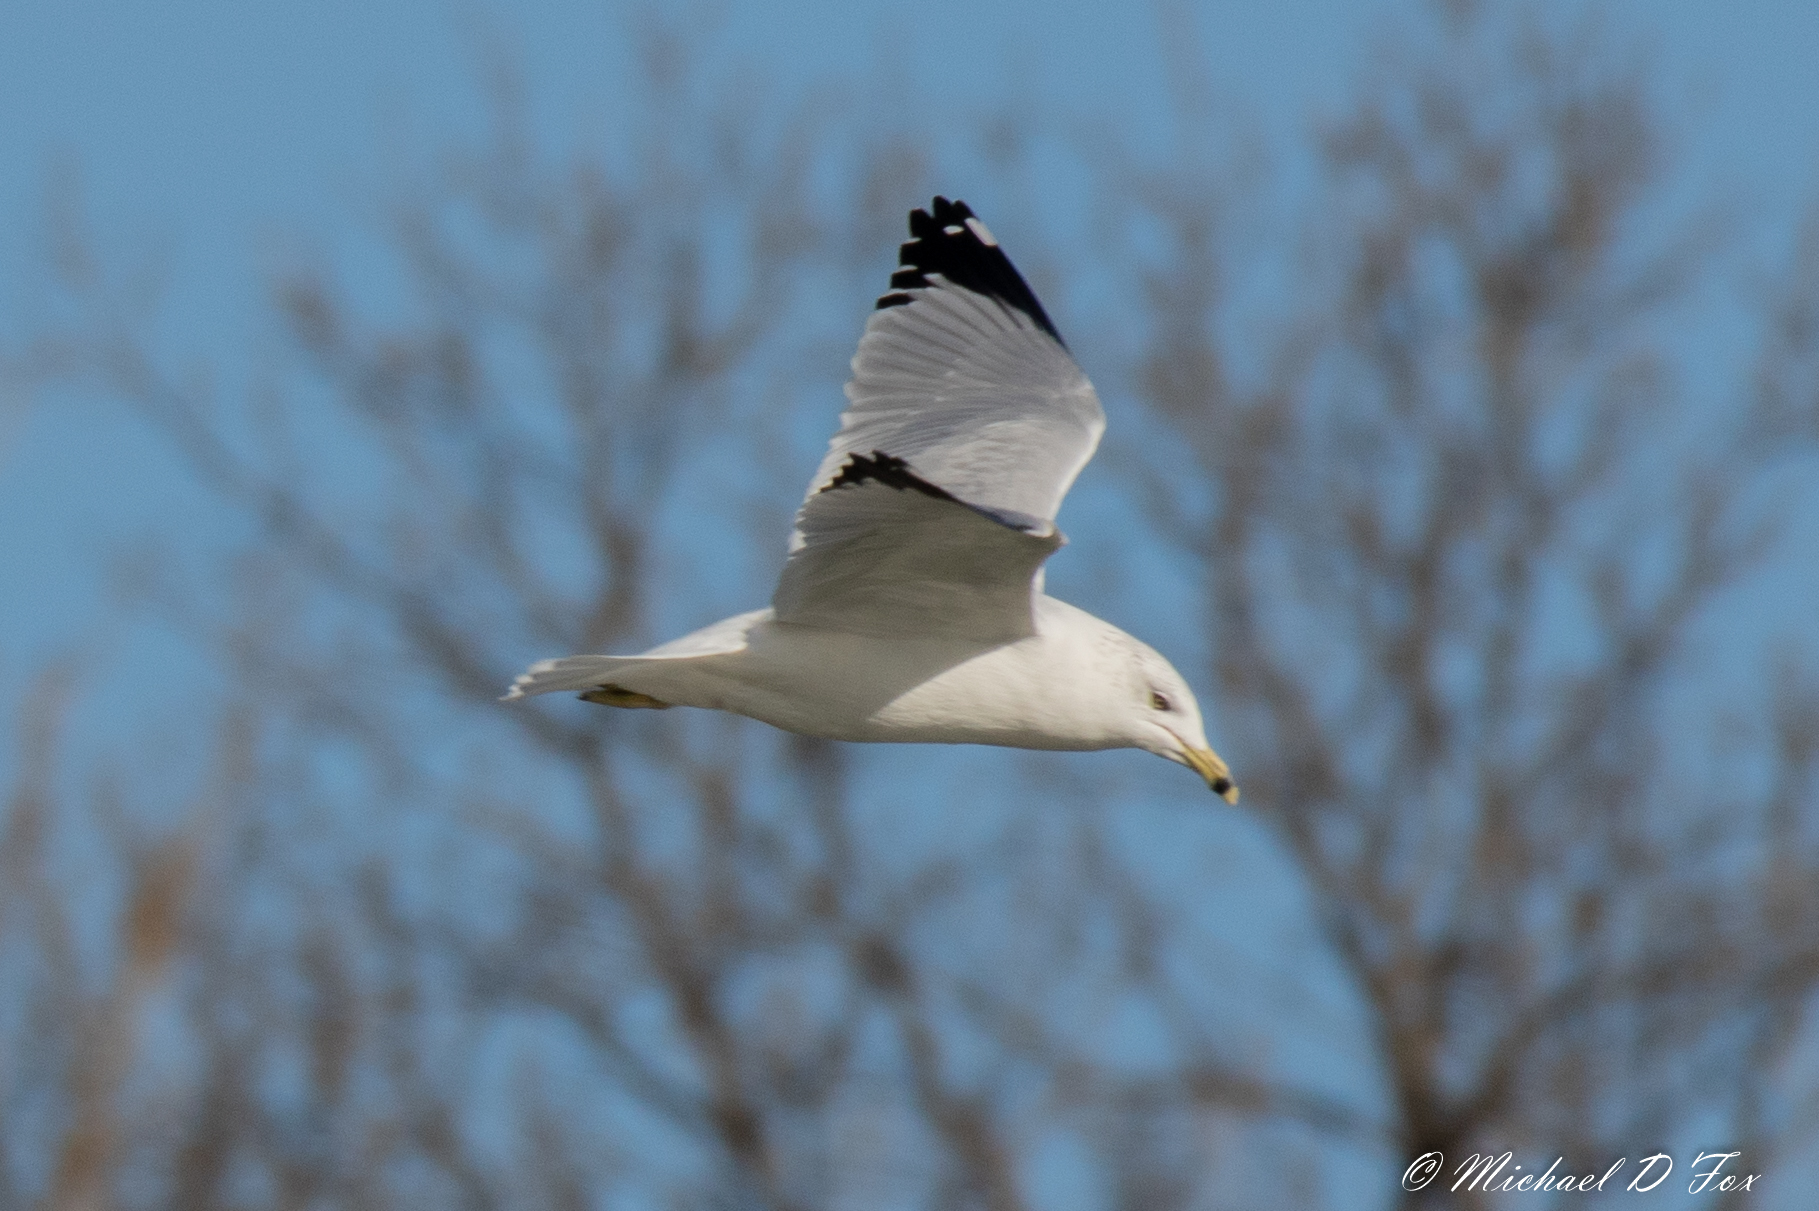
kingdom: Animalia
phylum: Chordata
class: Aves
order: Charadriiformes
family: Laridae
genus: Larus
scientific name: Larus delawarensis
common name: Ring-billed gull
